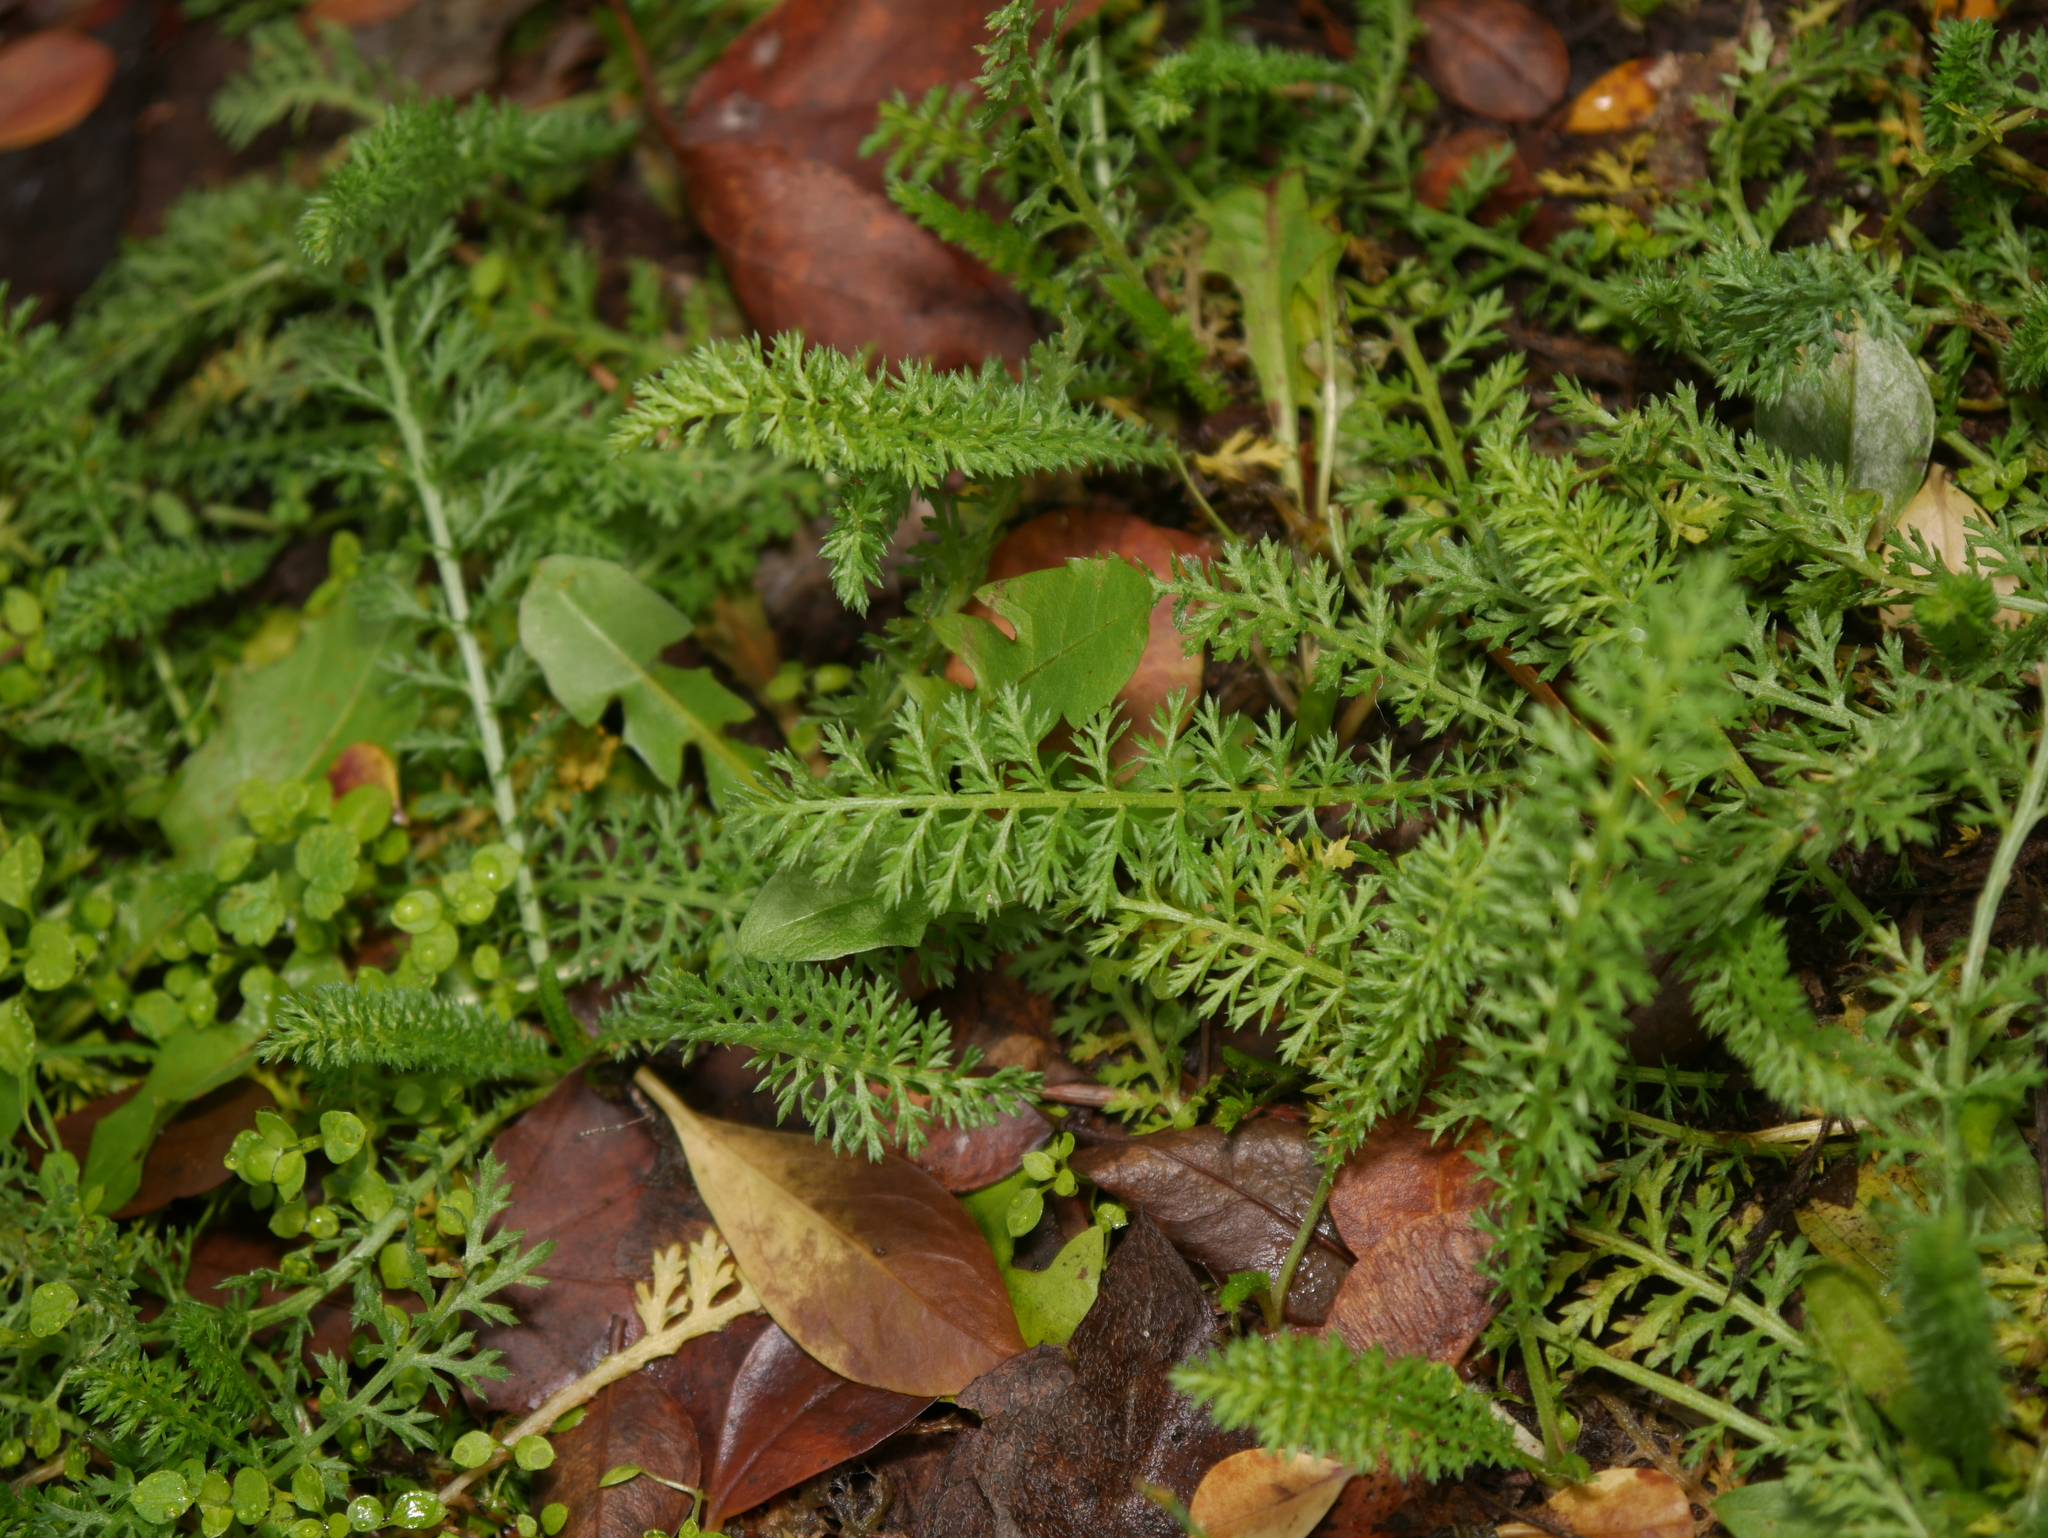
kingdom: Plantae
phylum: Tracheophyta
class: Magnoliopsida
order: Asterales
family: Asteraceae
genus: Achillea
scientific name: Achillea millefolium
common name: Yarrow
